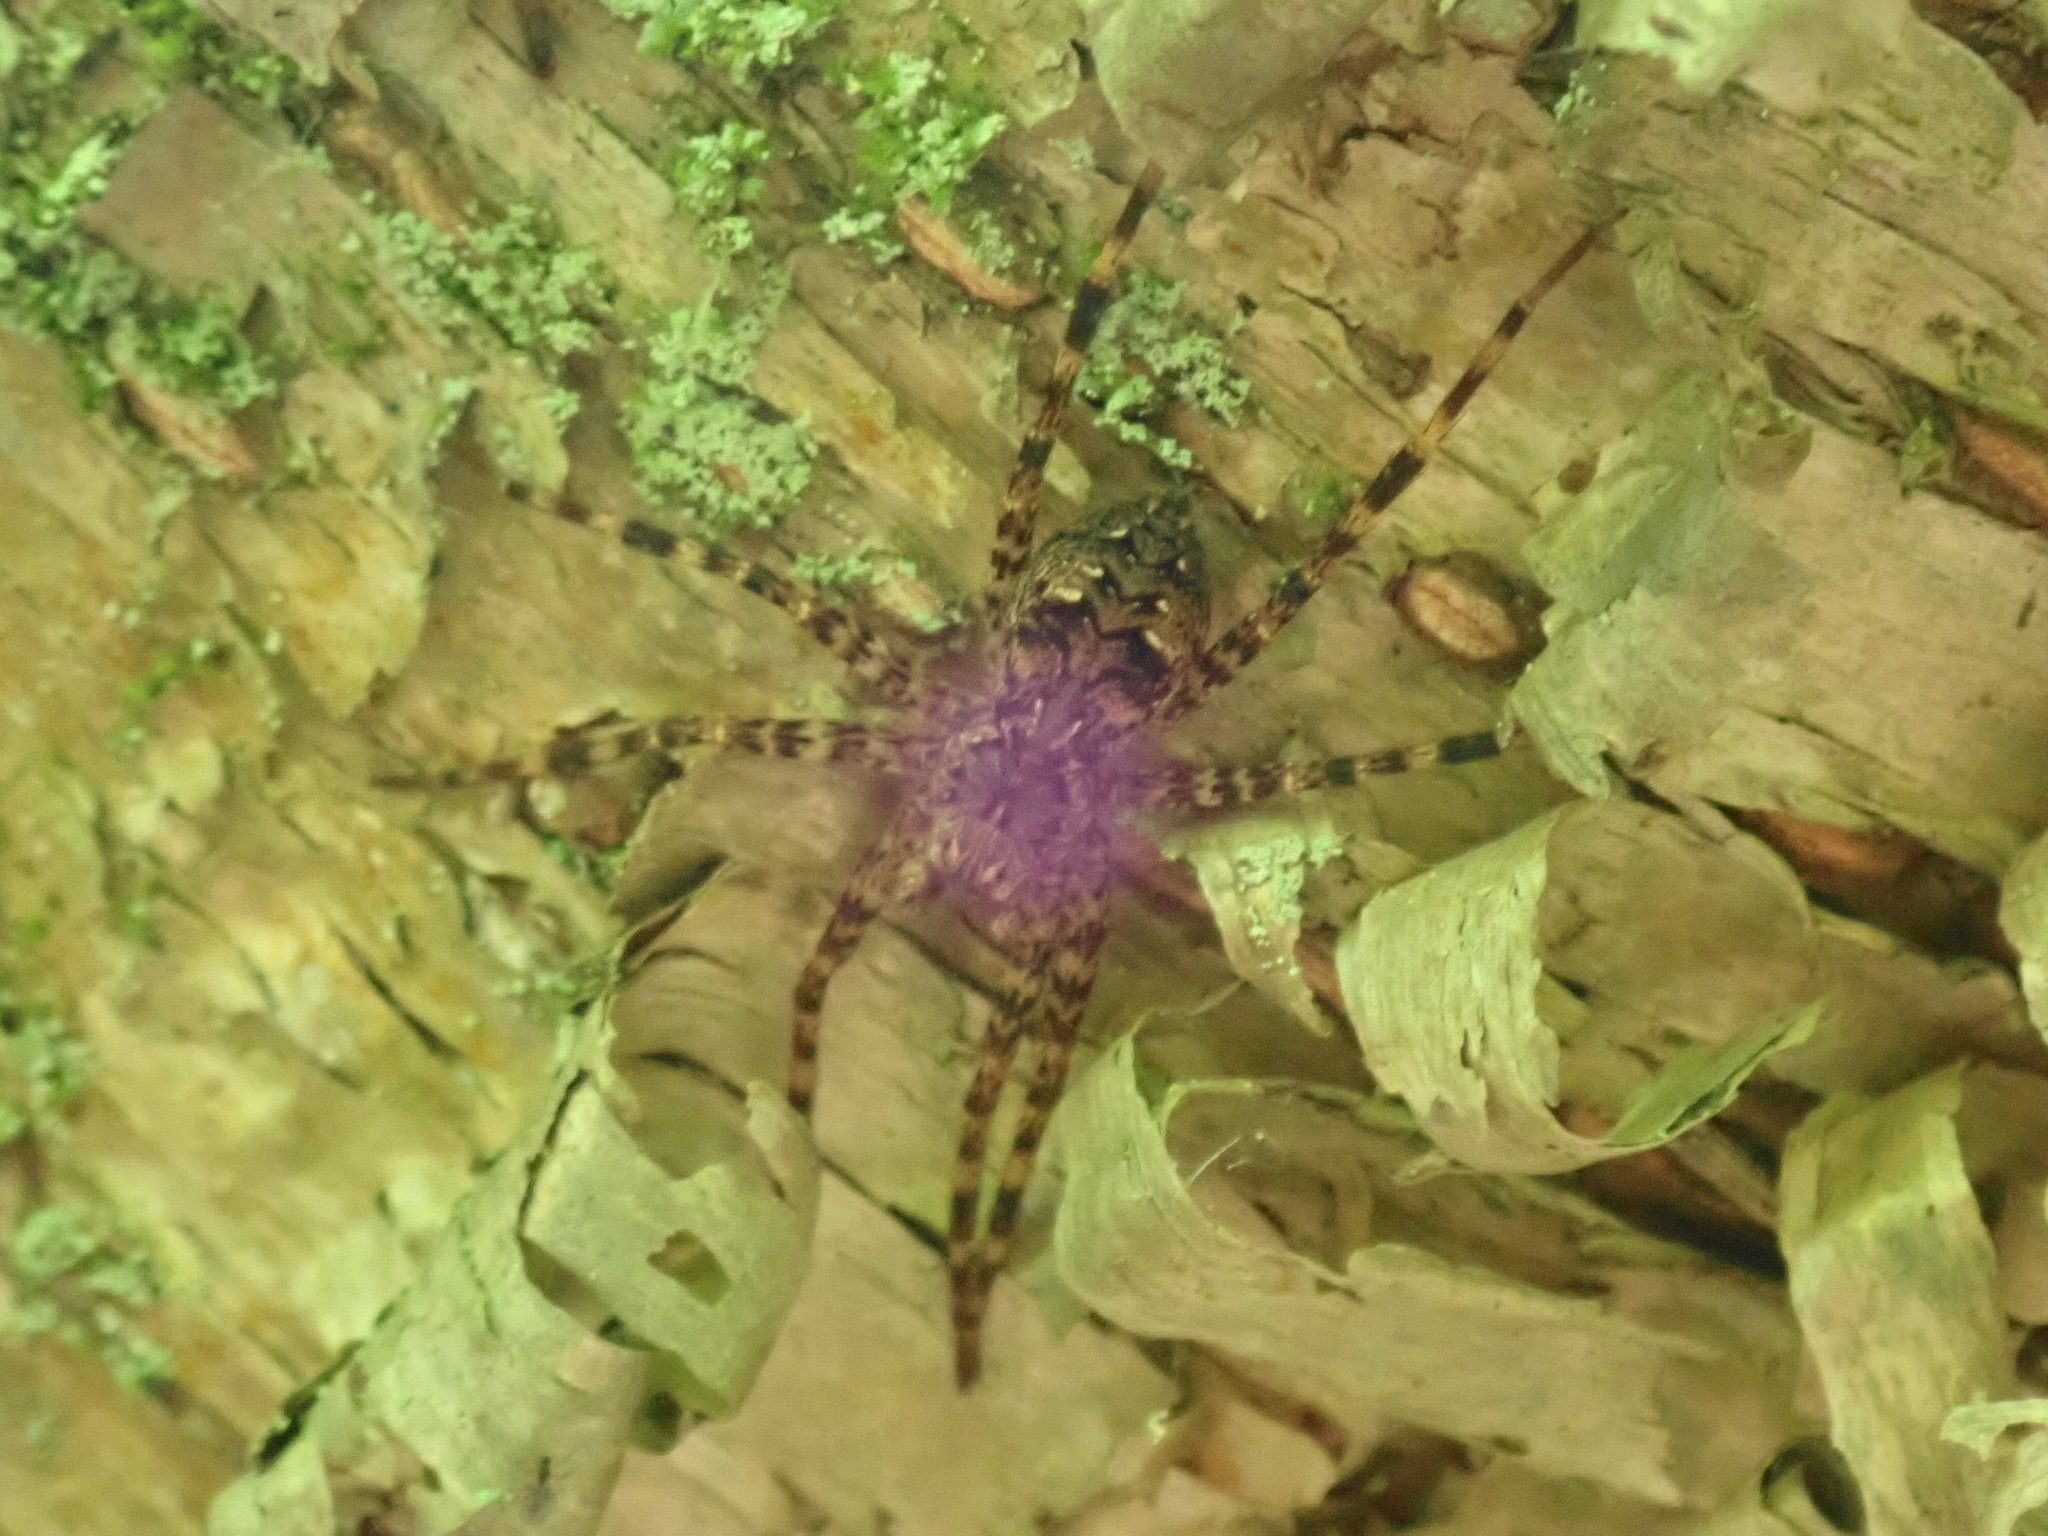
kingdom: Animalia
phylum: Arthropoda
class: Arachnida
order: Araneae
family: Pisauridae
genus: Dolomedes
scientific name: Dolomedes tenebrosus
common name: Dark fishing spider
